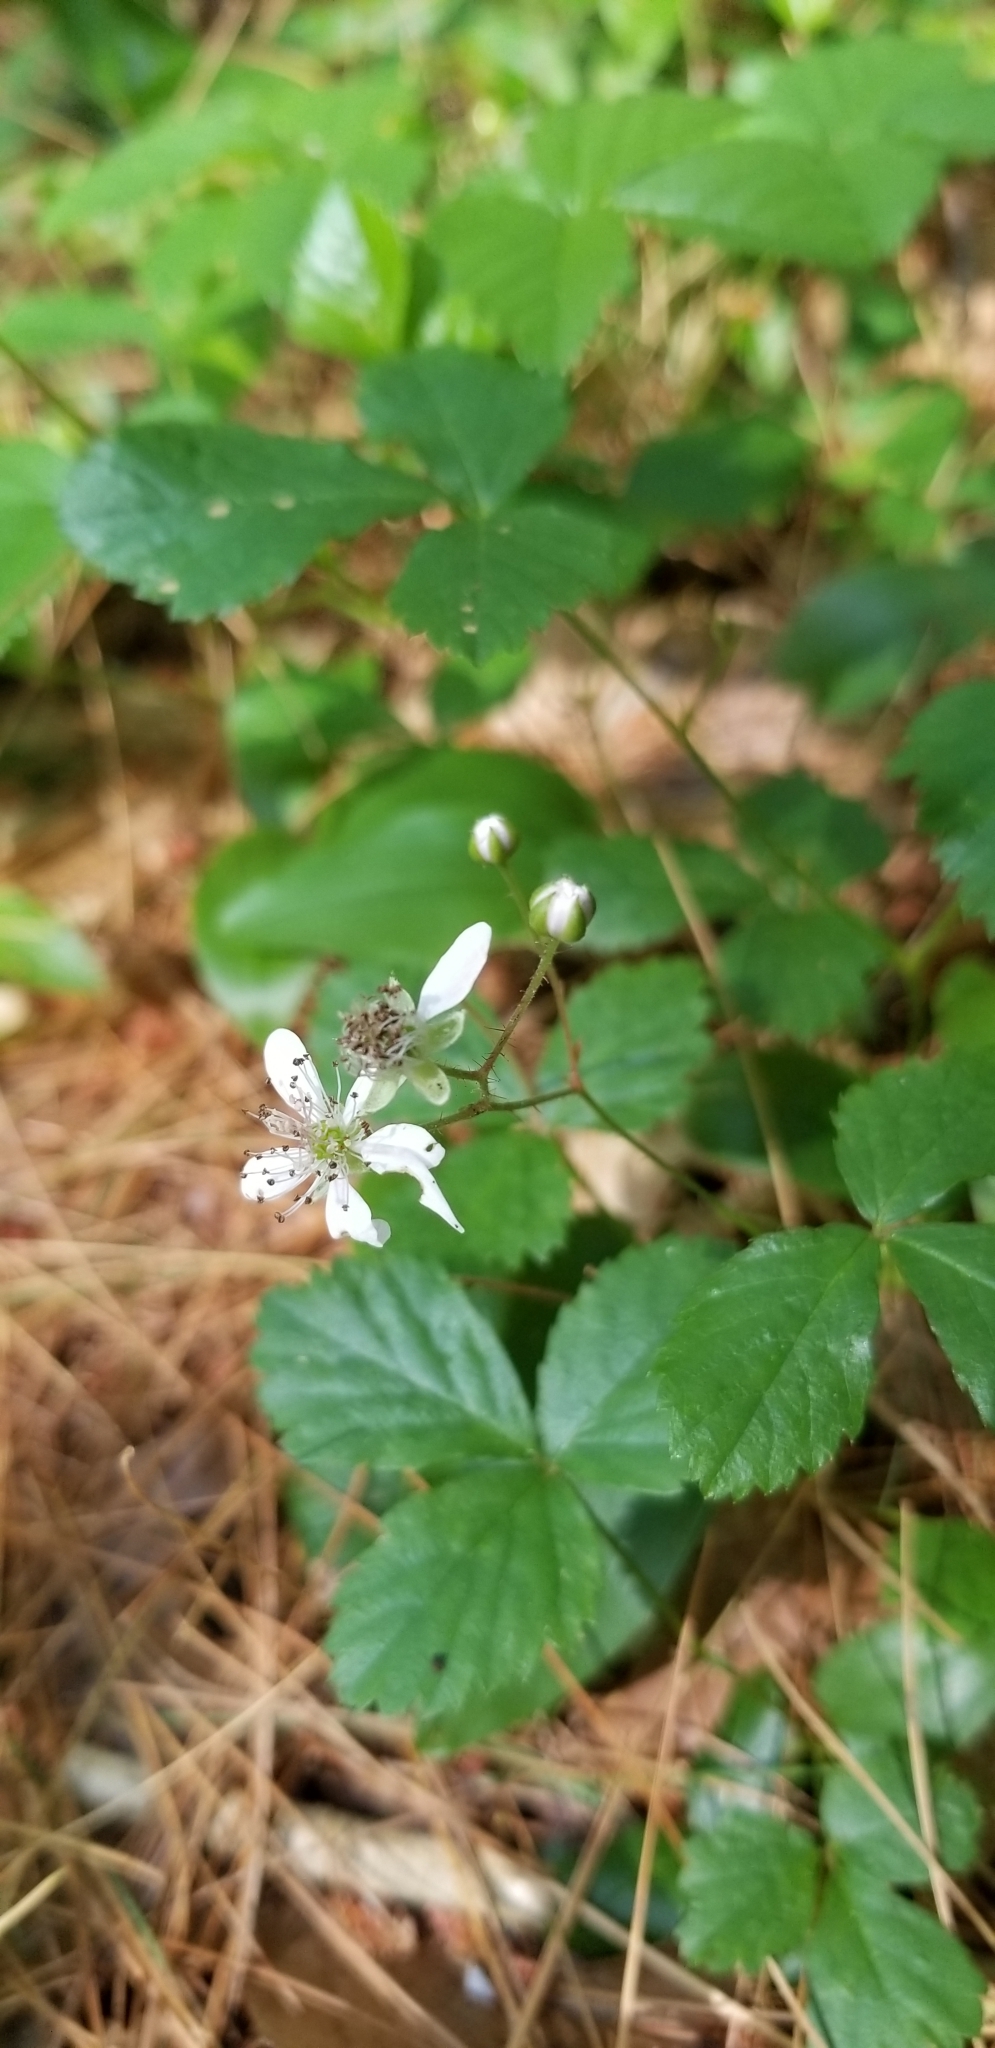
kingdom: Plantae
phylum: Tracheophyta
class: Magnoliopsida
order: Rosales
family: Rosaceae
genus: Rubus
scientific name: Rubus hispidus
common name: Running blackberry
